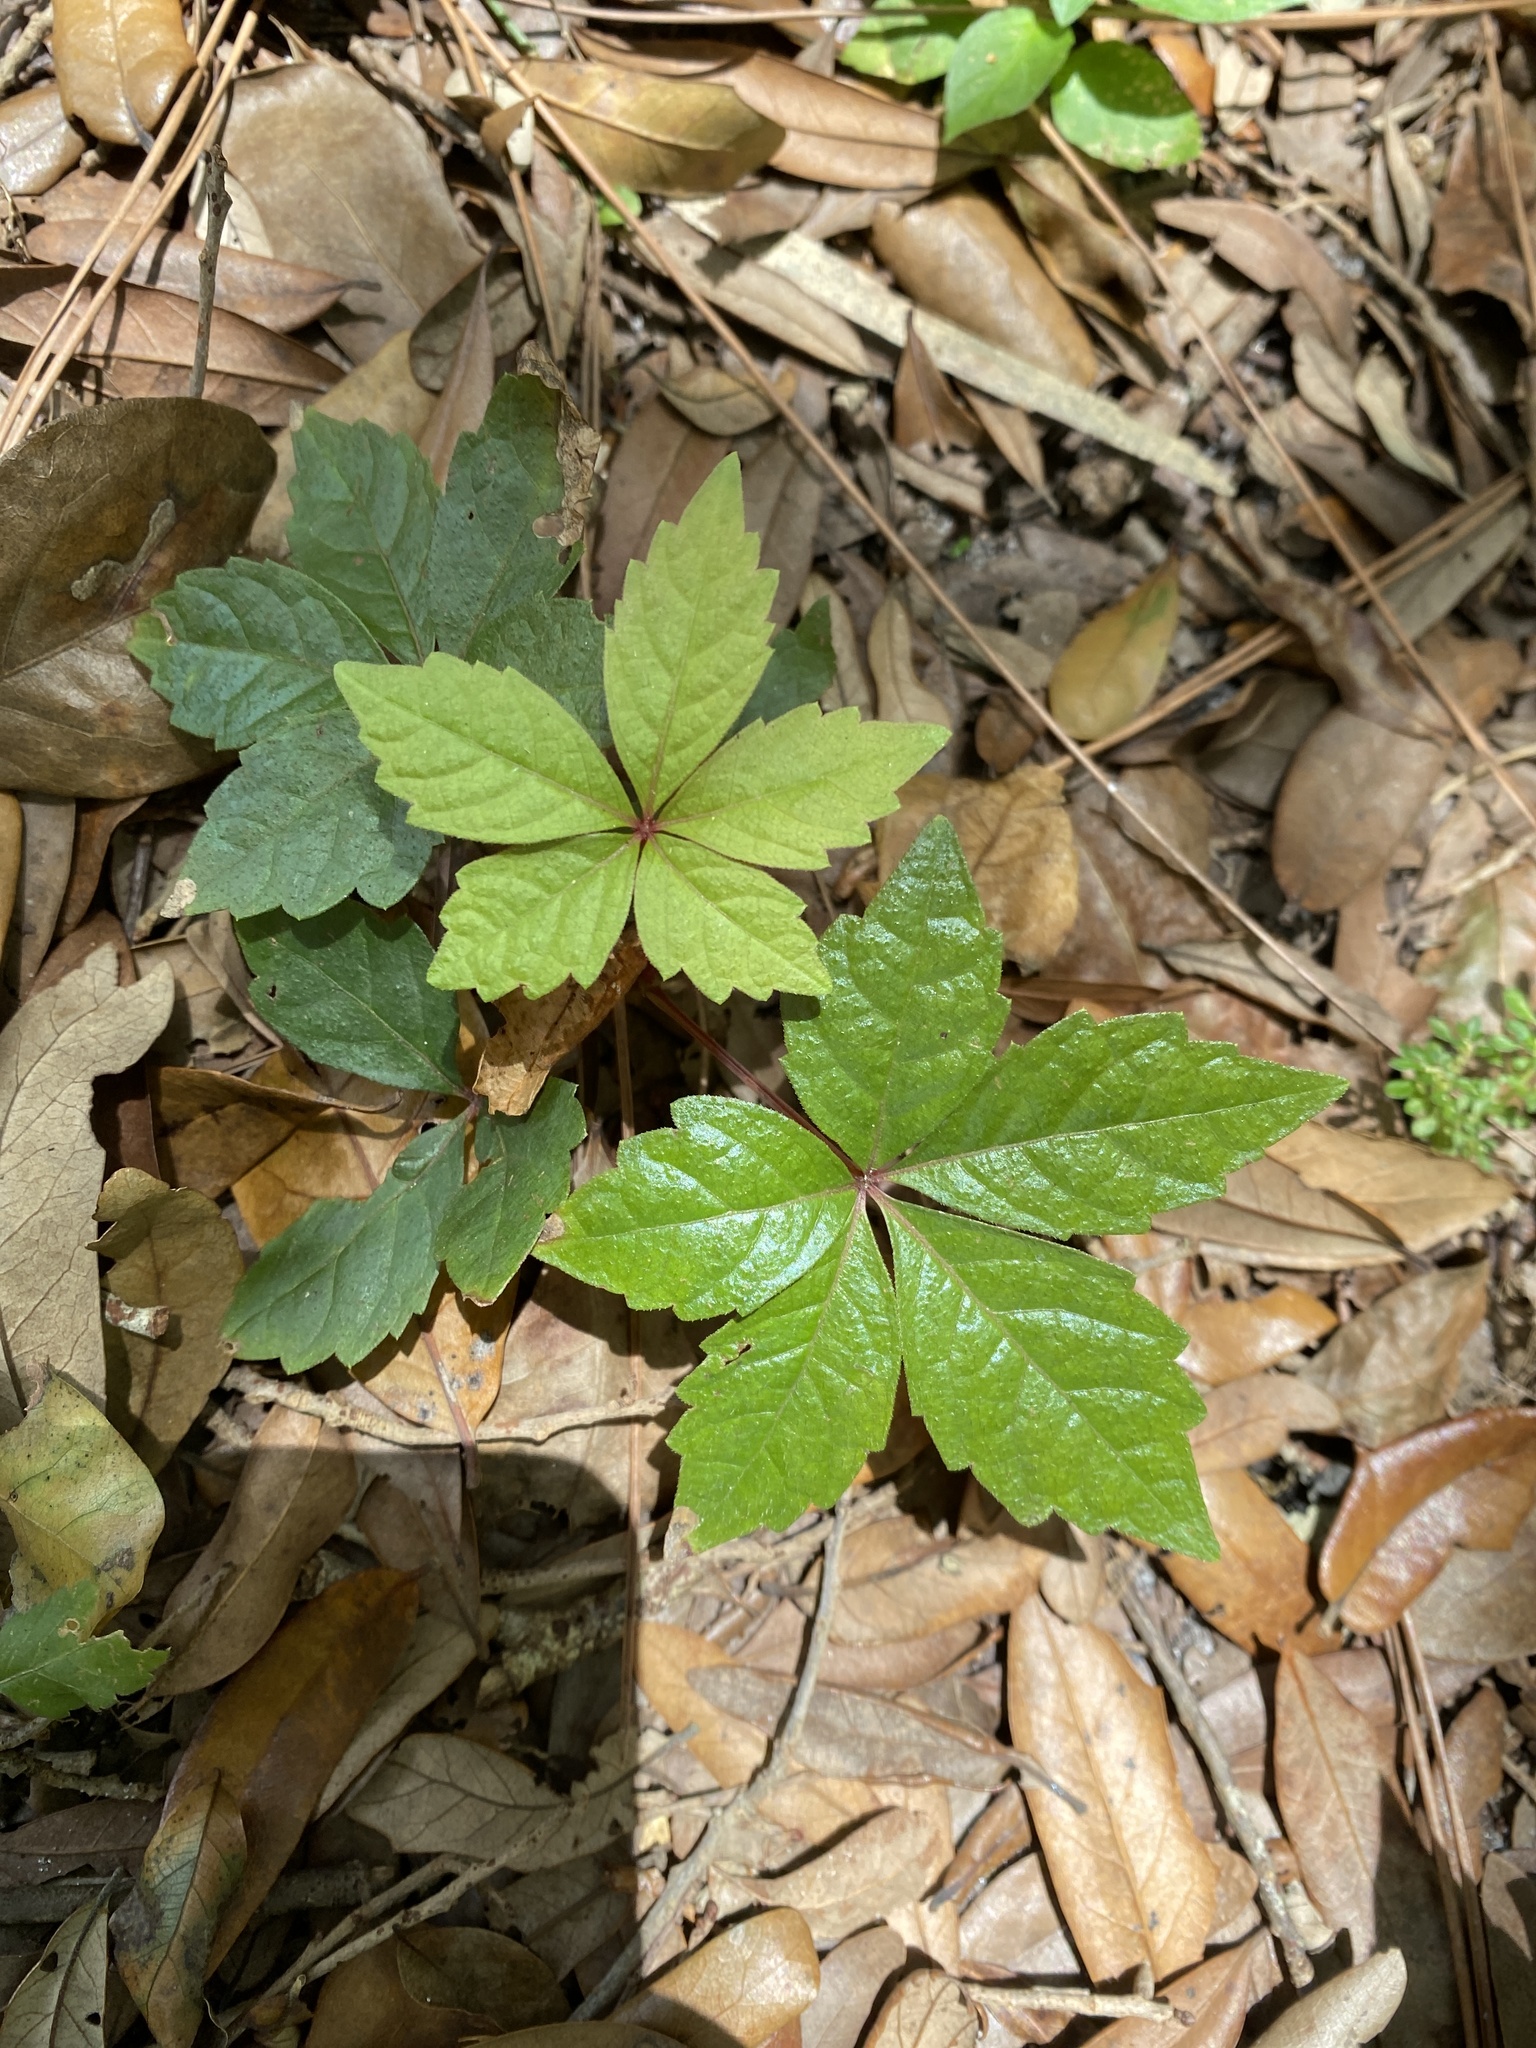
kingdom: Plantae
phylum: Tracheophyta
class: Magnoliopsida
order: Vitales
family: Vitaceae
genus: Parthenocissus
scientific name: Parthenocissus quinquefolia
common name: Virginia-creeper
